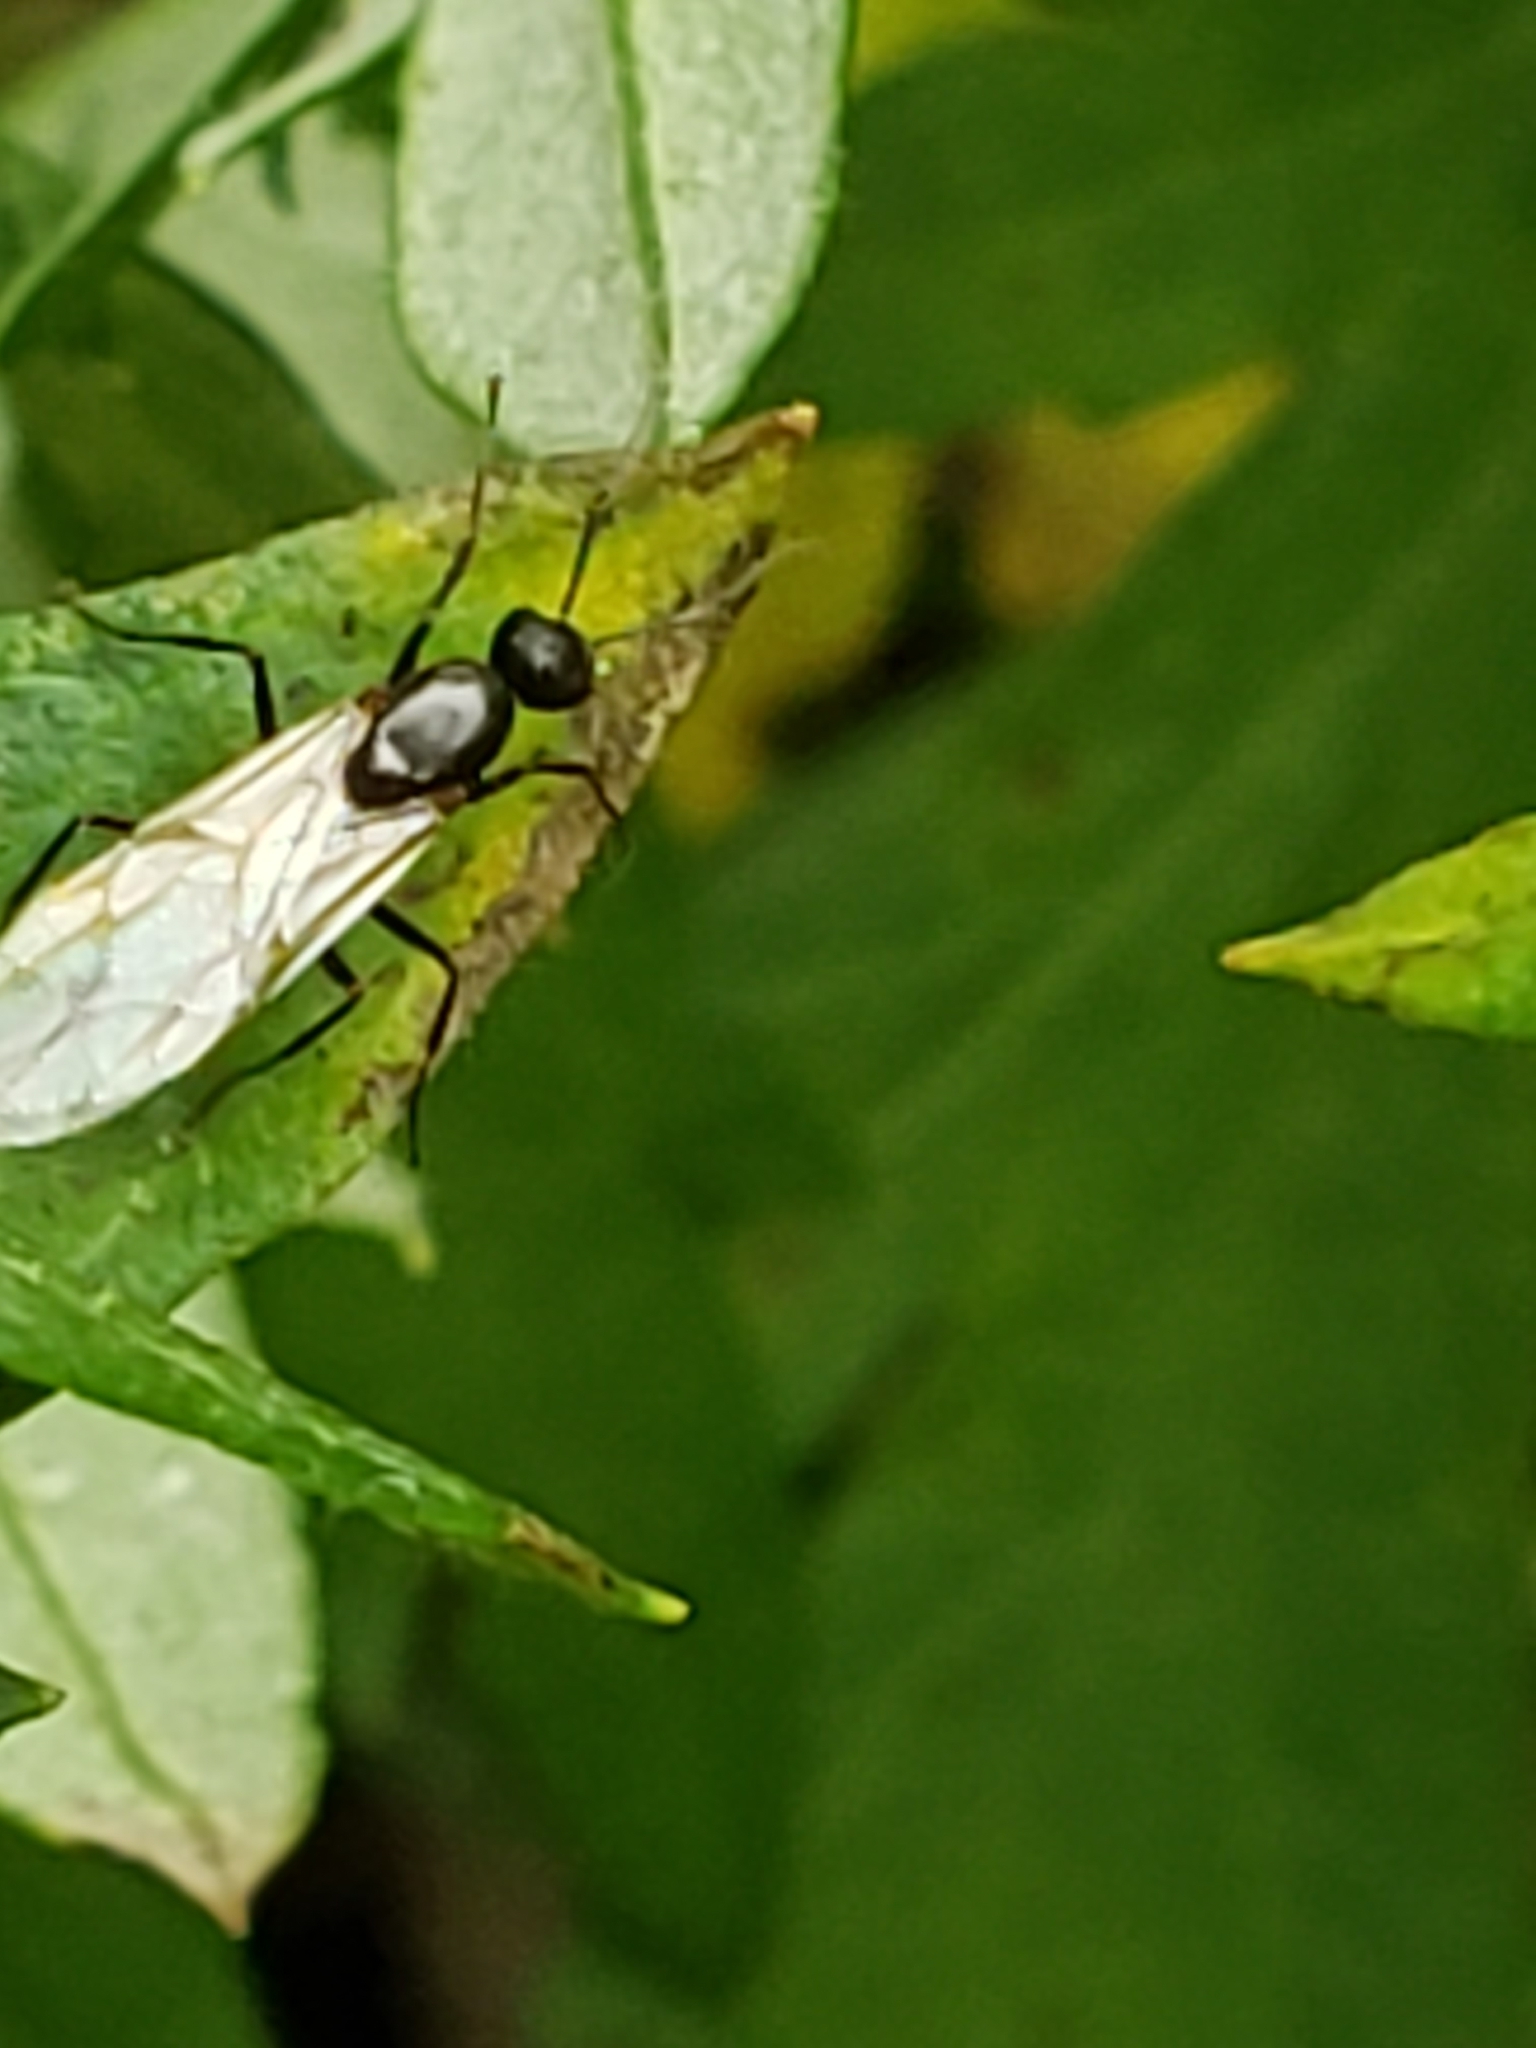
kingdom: Animalia
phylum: Arthropoda
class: Insecta
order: Hymenoptera
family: Formicidae
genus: Camponotus
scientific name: Camponotus pennsylvanicus
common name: Black carpenter ant
